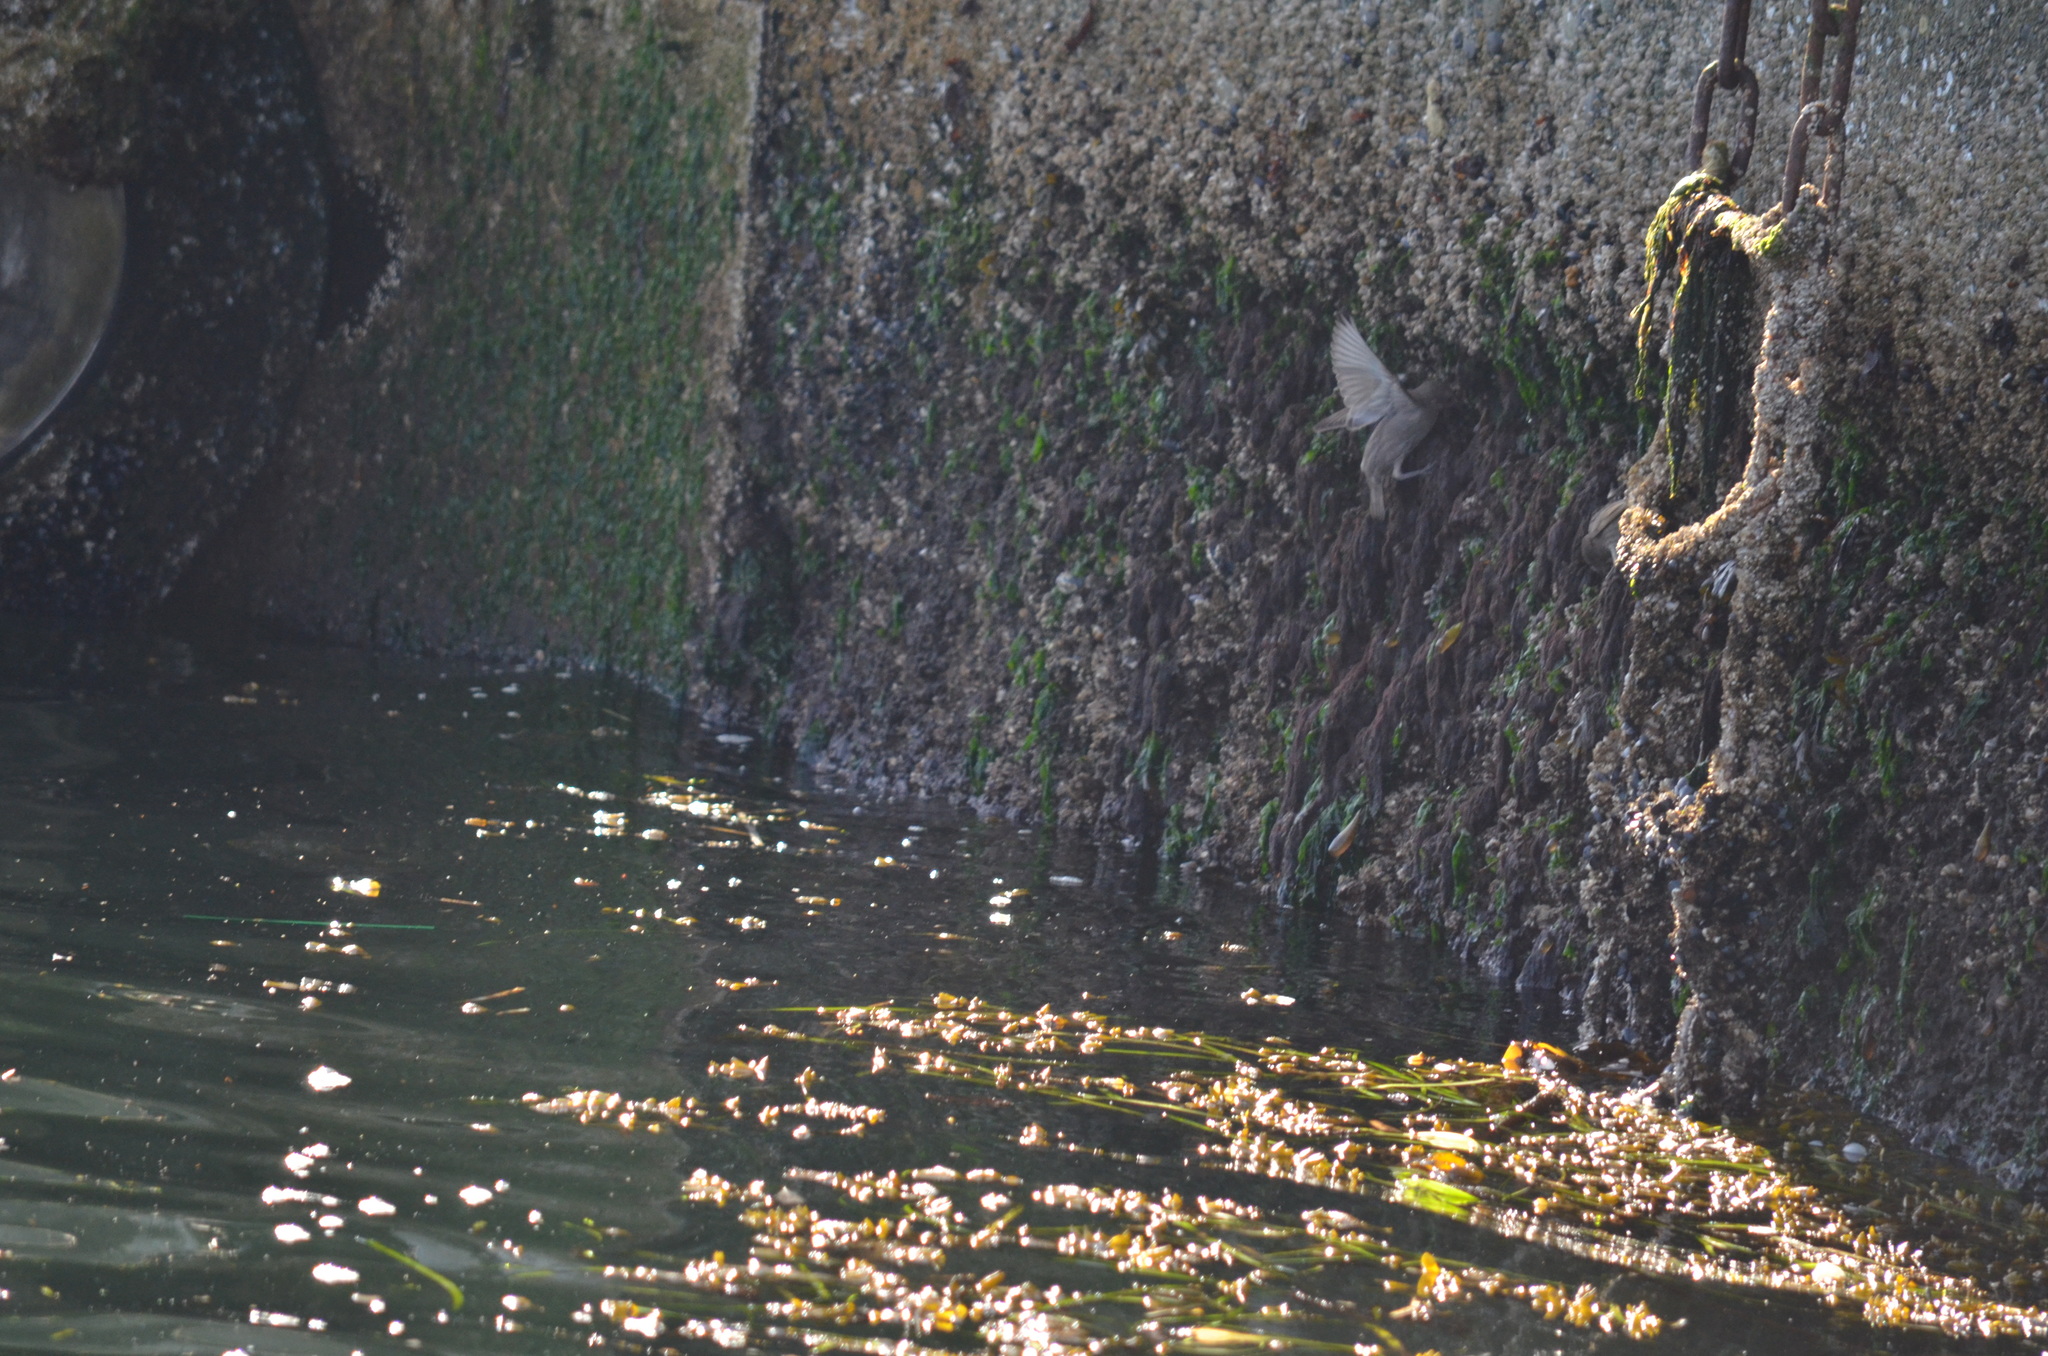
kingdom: Animalia
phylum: Chordata
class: Aves
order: Passeriformes
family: Sturnidae
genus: Sturnus
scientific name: Sturnus vulgaris
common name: Common starling
